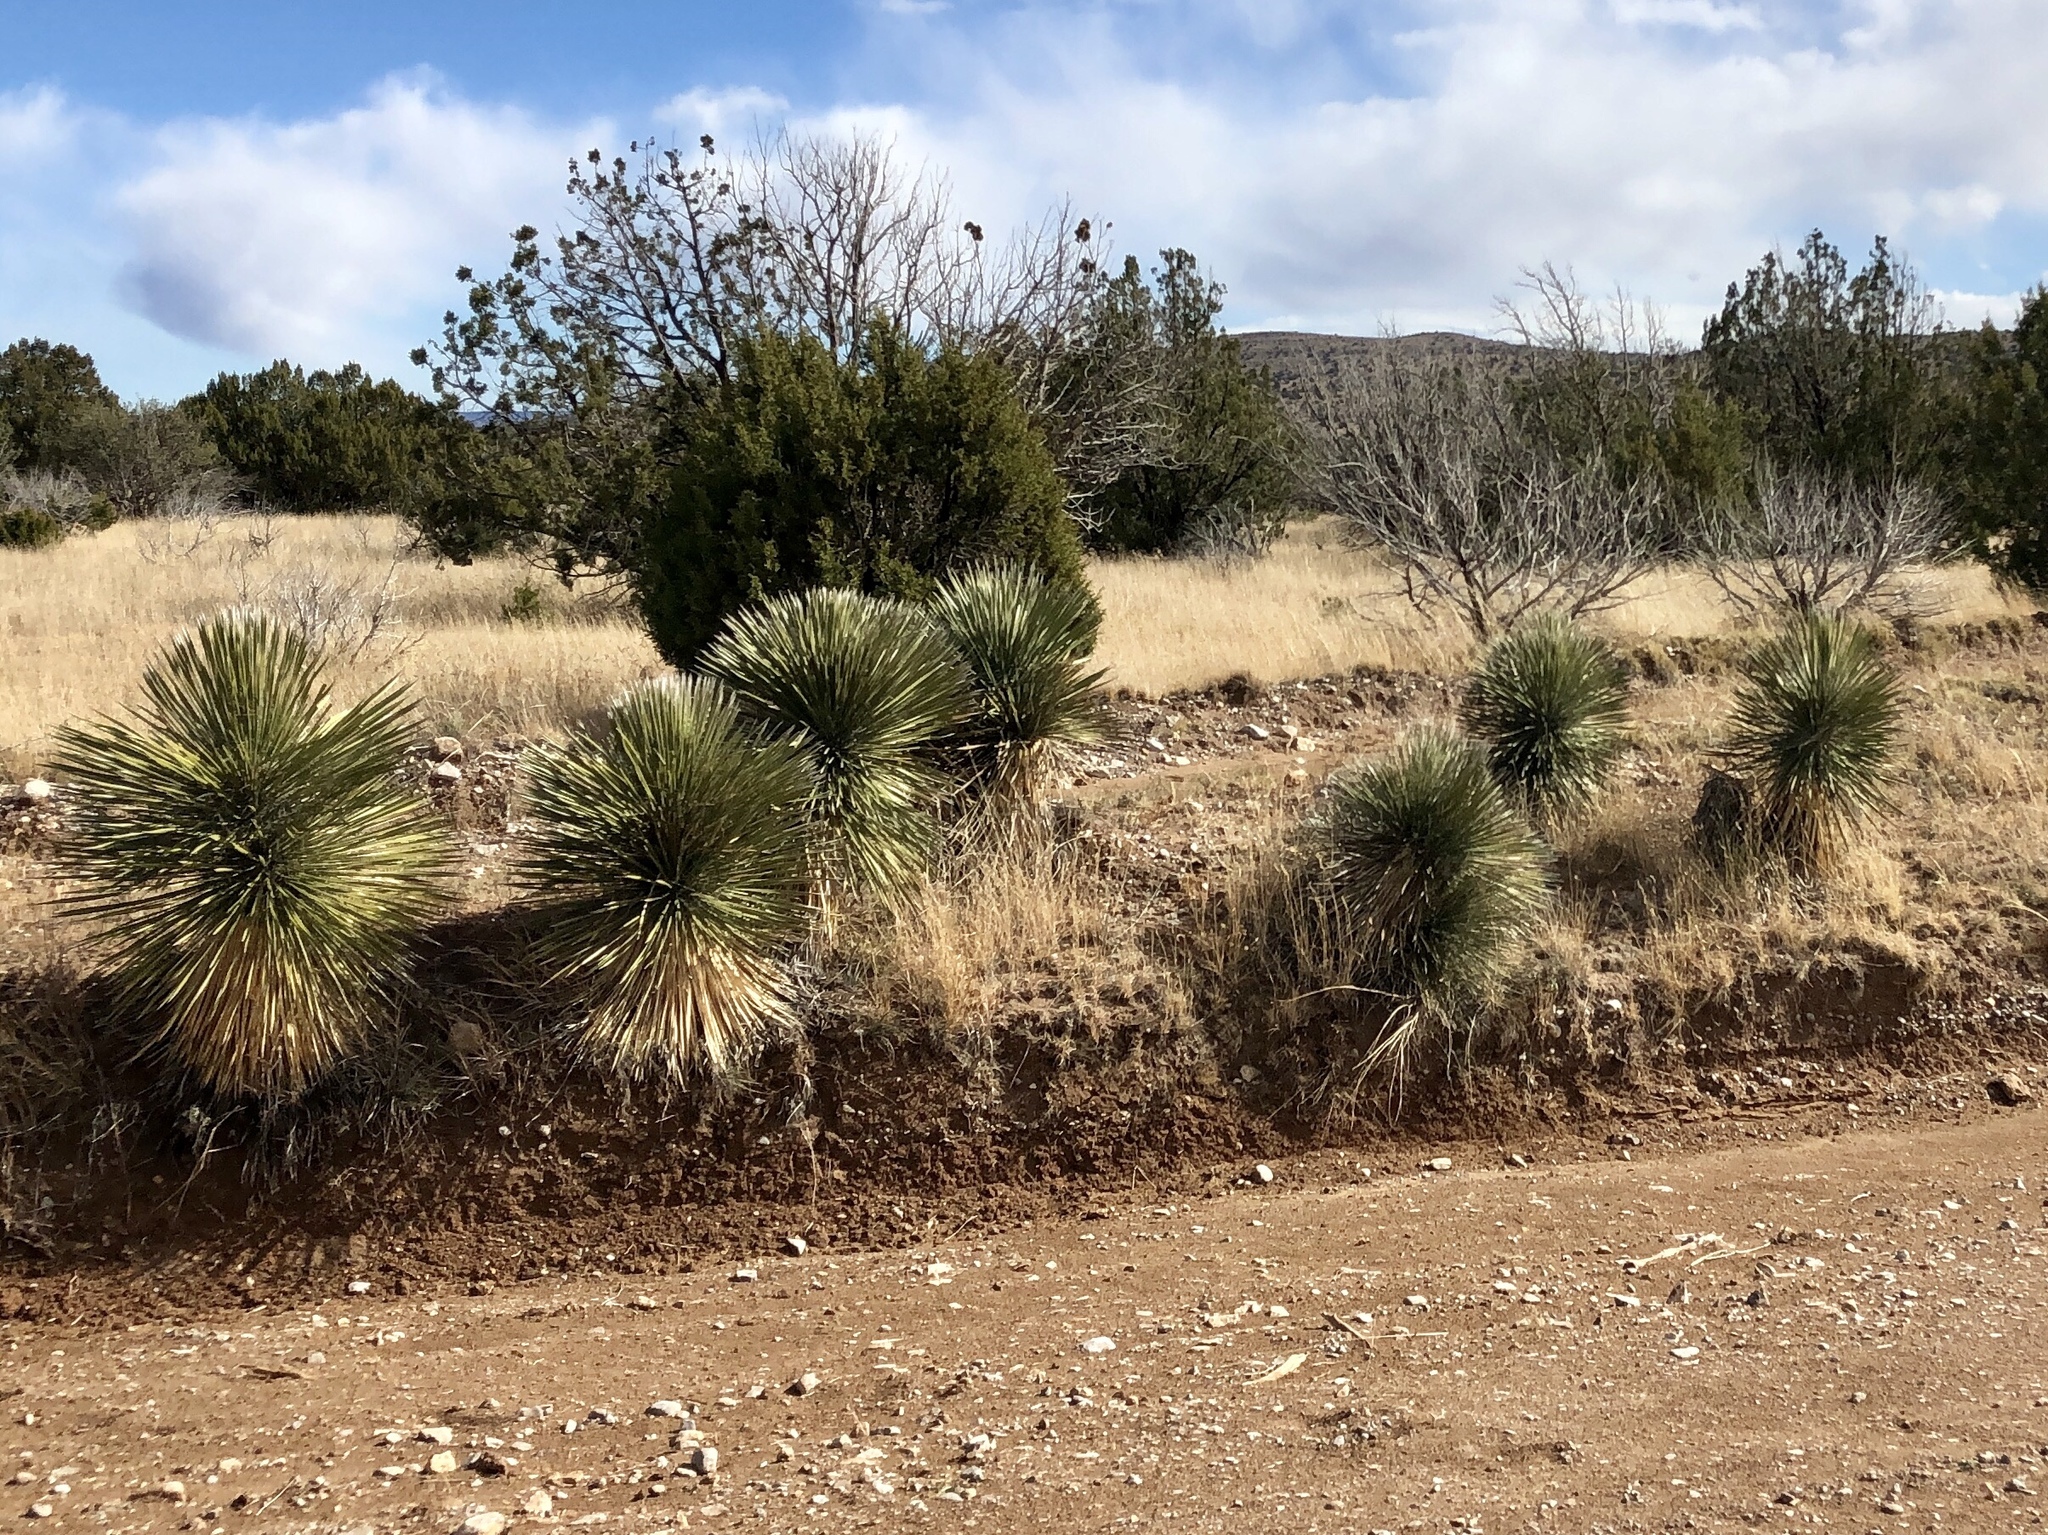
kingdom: Plantae
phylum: Tracheophyta
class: Liliopsida
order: Asparagales
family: Asparagaceae
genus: Yucca
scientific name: Yucca elata
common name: Palmella
